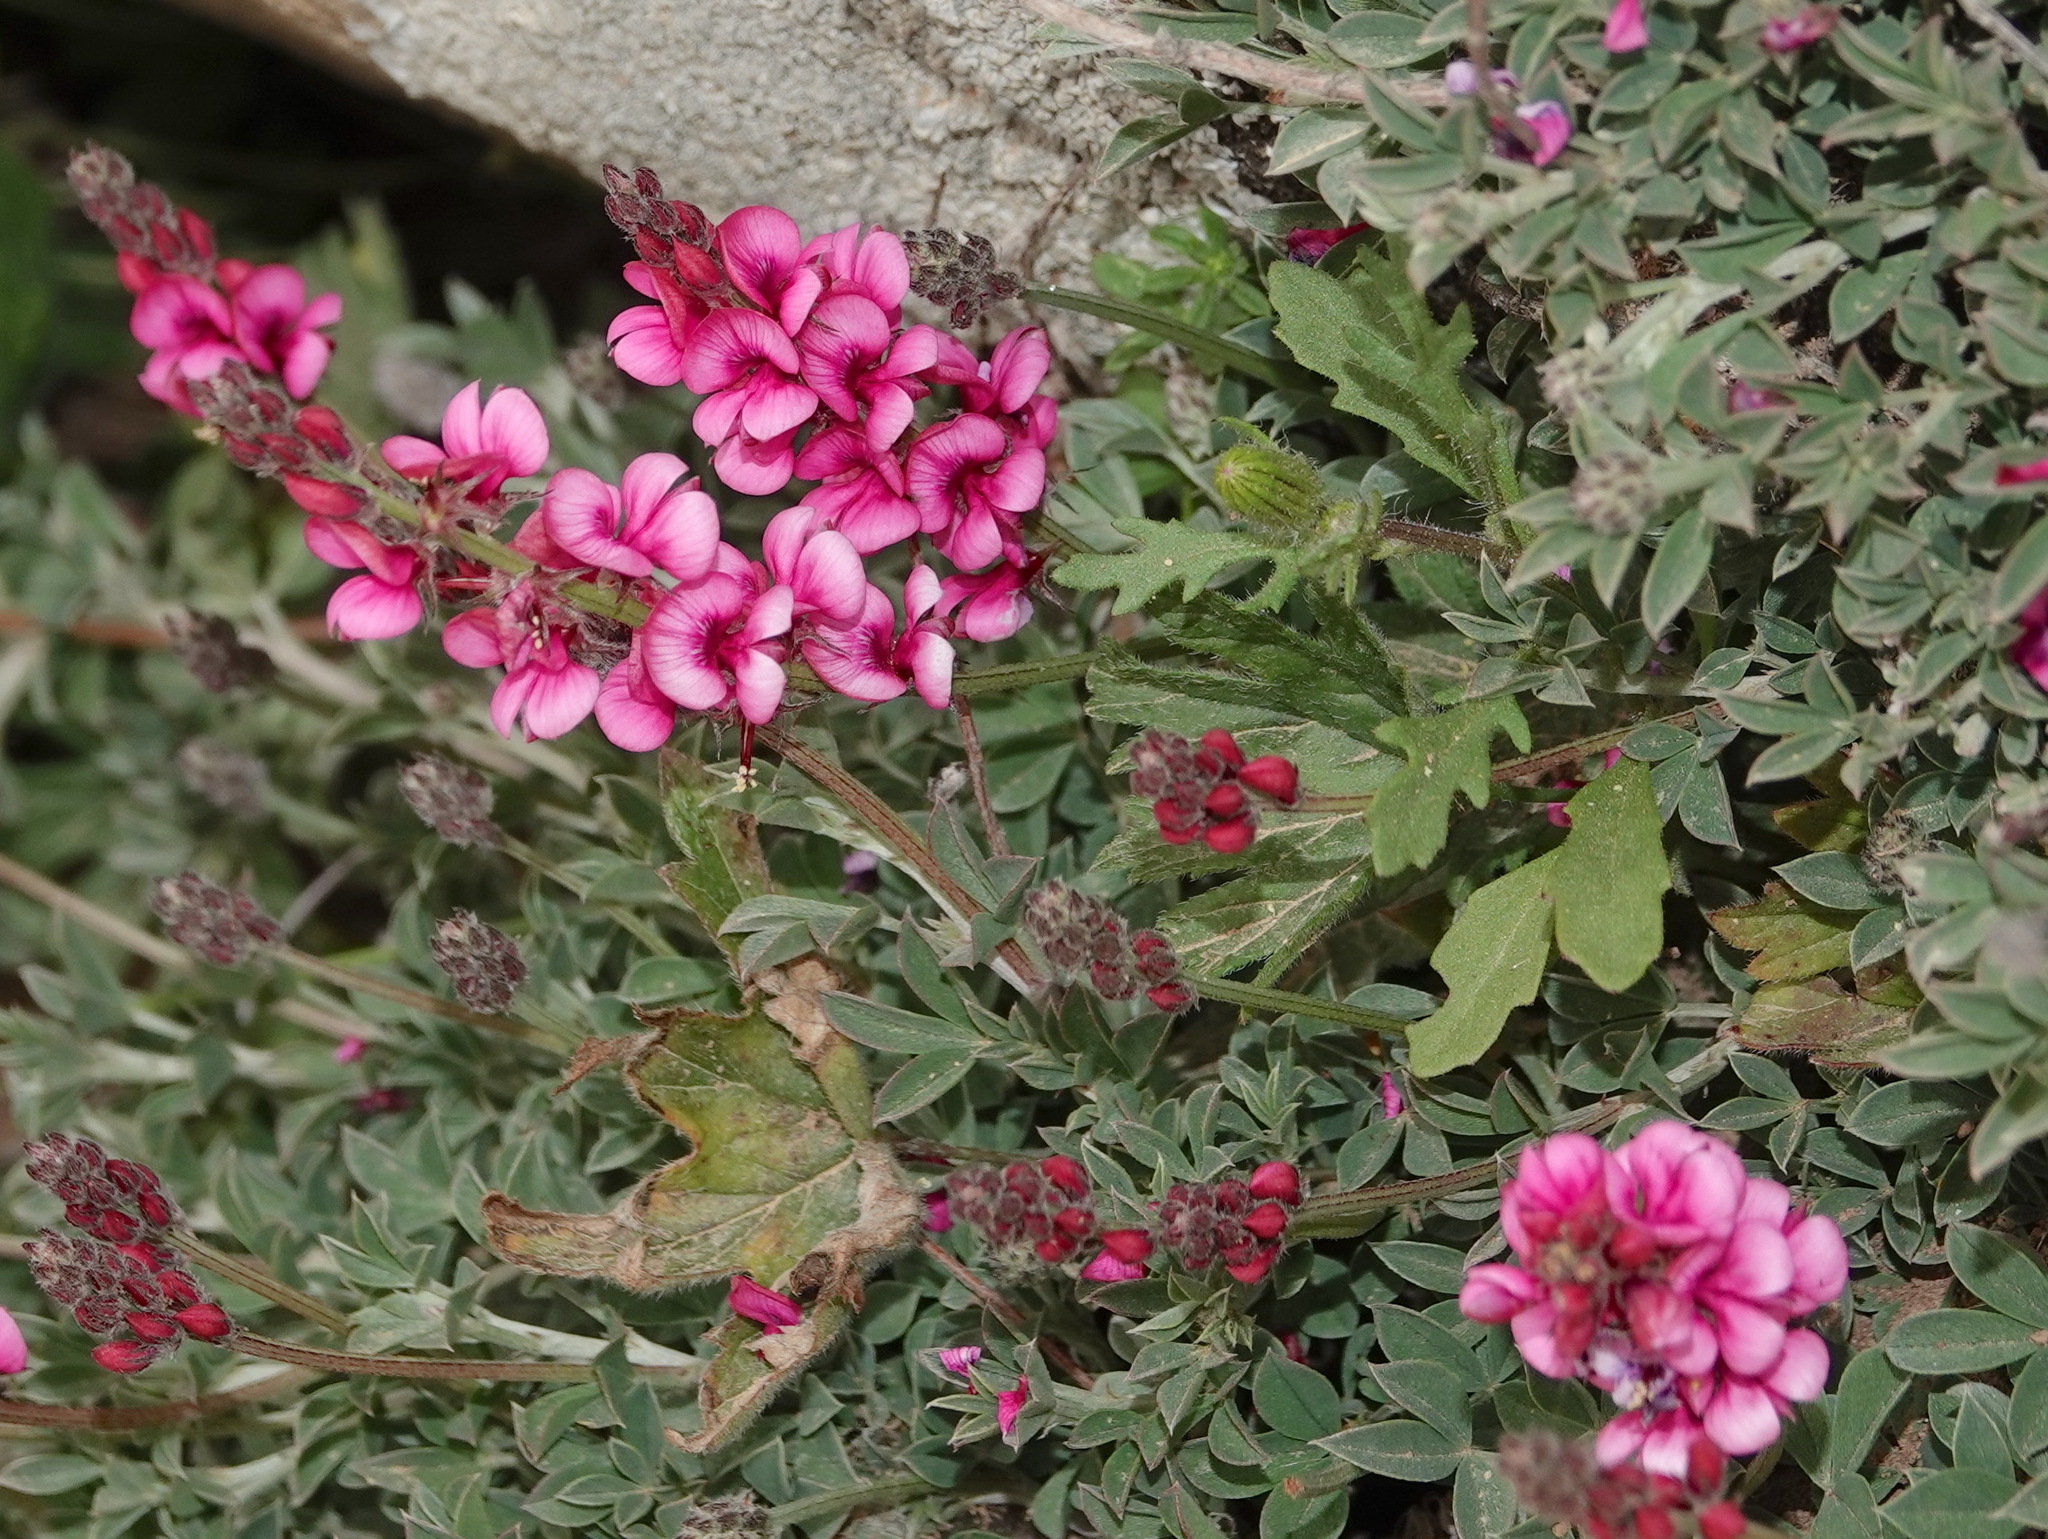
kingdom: Plantae
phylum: Tracheophyta
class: Magnoliopsida
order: Fabales
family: Fabaceae
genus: Indigofera
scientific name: Indigofera meyeriana
